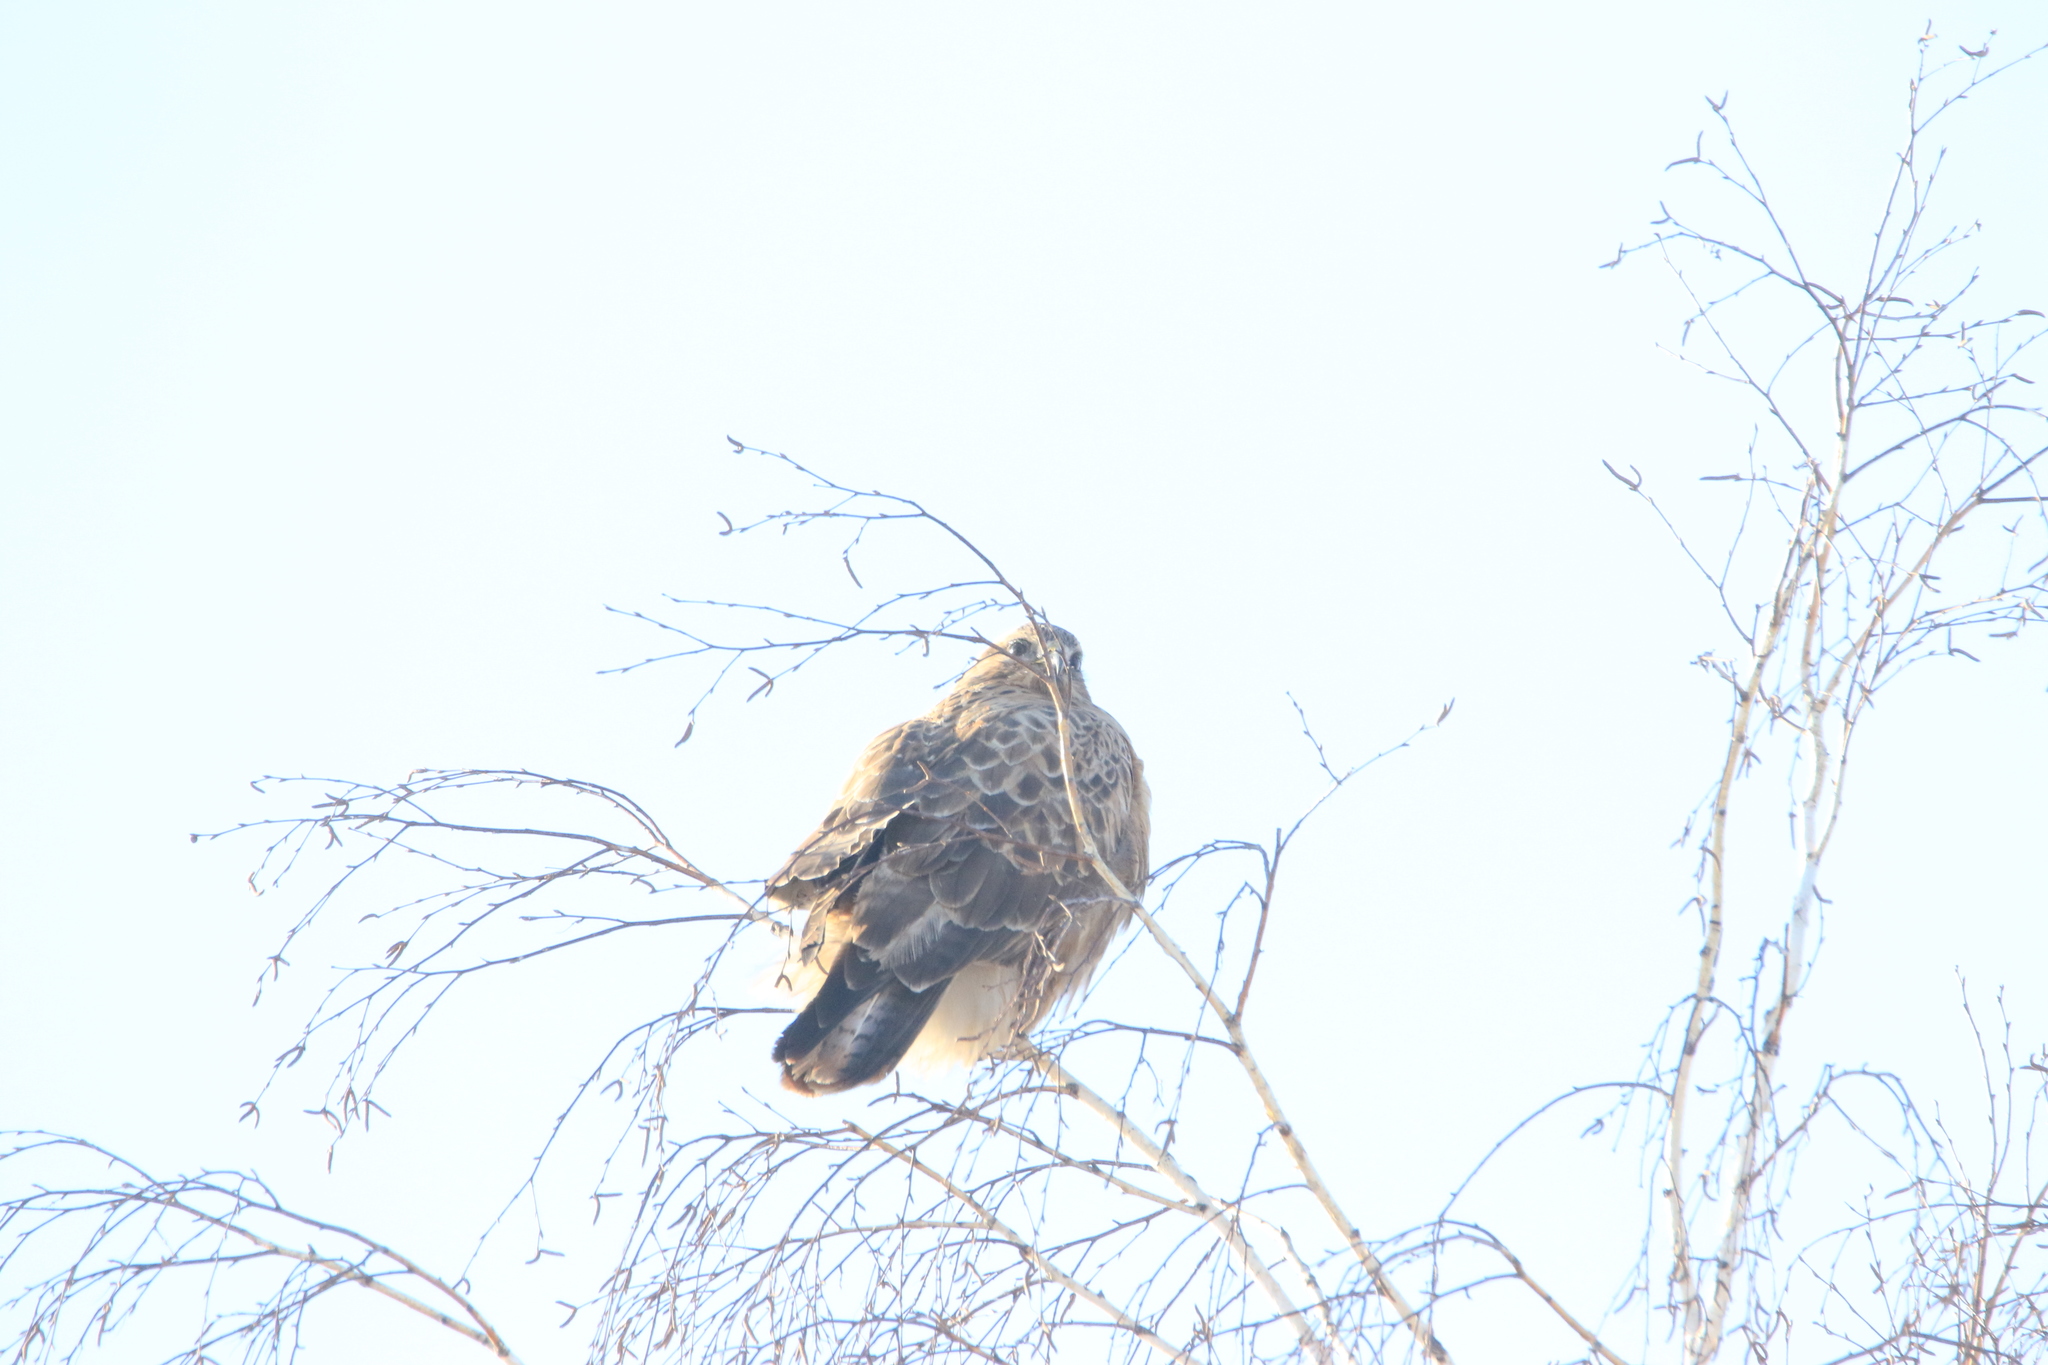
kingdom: Animalia
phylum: Chordata
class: Aves
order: Accipitriformes
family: Accipitridae
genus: Buteo
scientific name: Buteo hemilasius
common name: Upland buzzard
